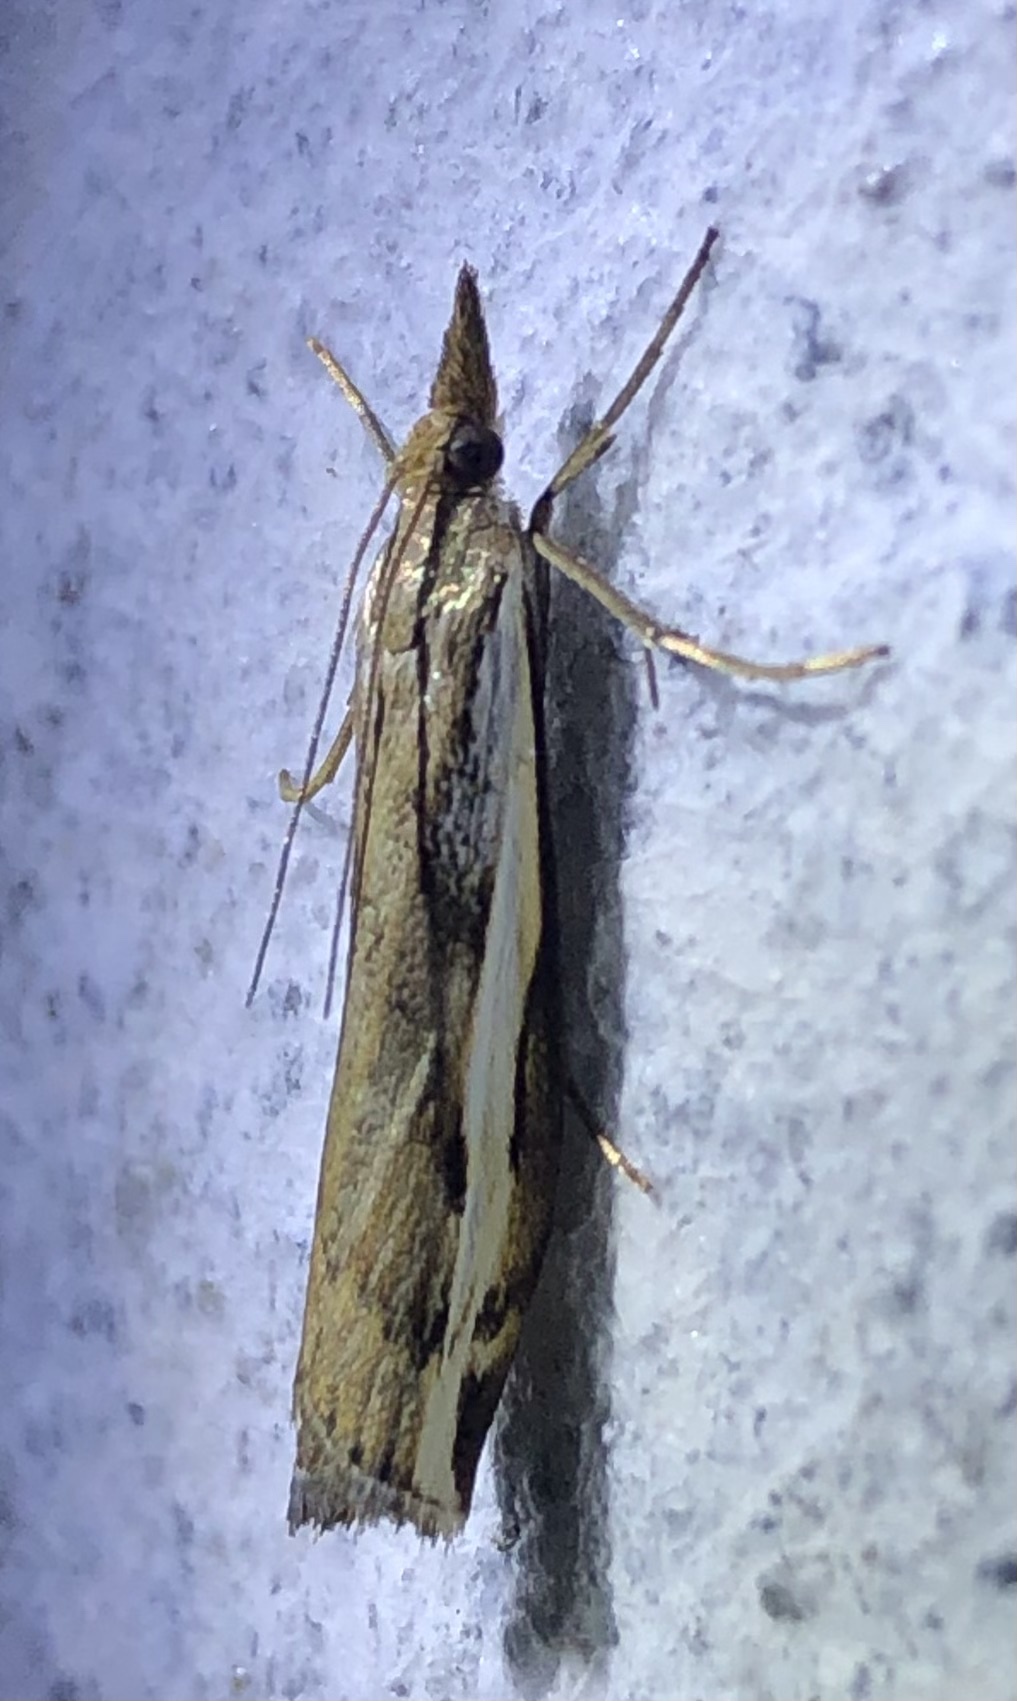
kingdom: Animalia
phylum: Arthropoda
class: Insecta
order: Lepidoptera
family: Crambidae
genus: Orocrambus
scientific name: Orocrambus flexuosellus
